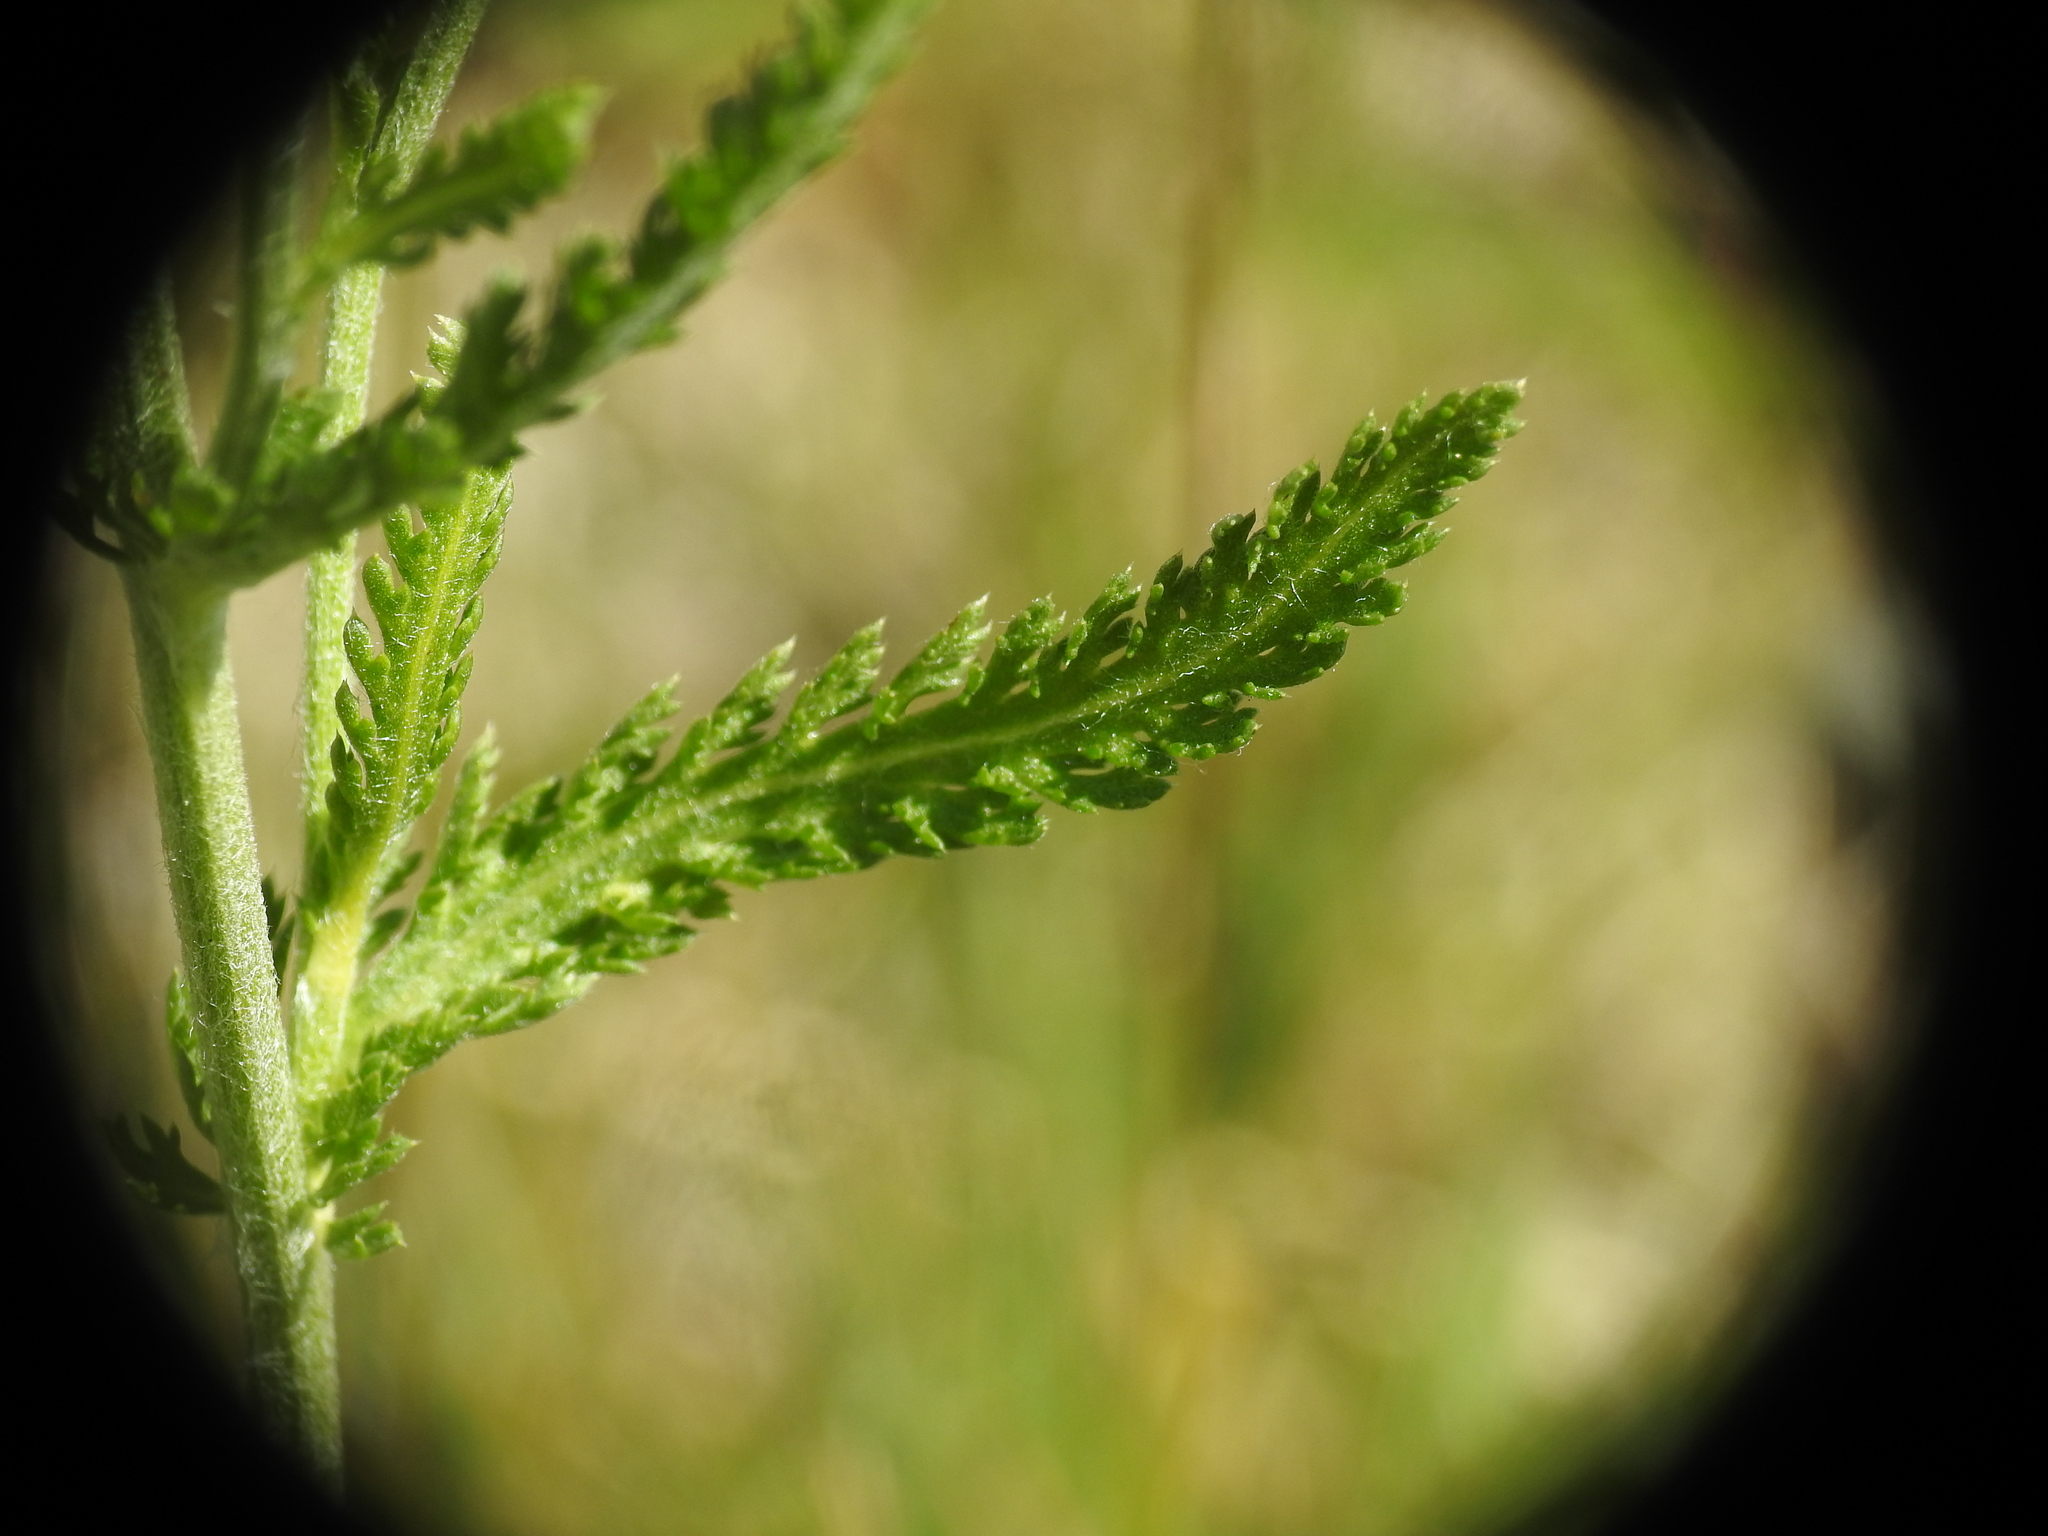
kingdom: Plantae
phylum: Tracheophyta
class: Magnoliopsida
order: Asterales
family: Asteraceae
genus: Achillea
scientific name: Achillea millefolium
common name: Yarrow
